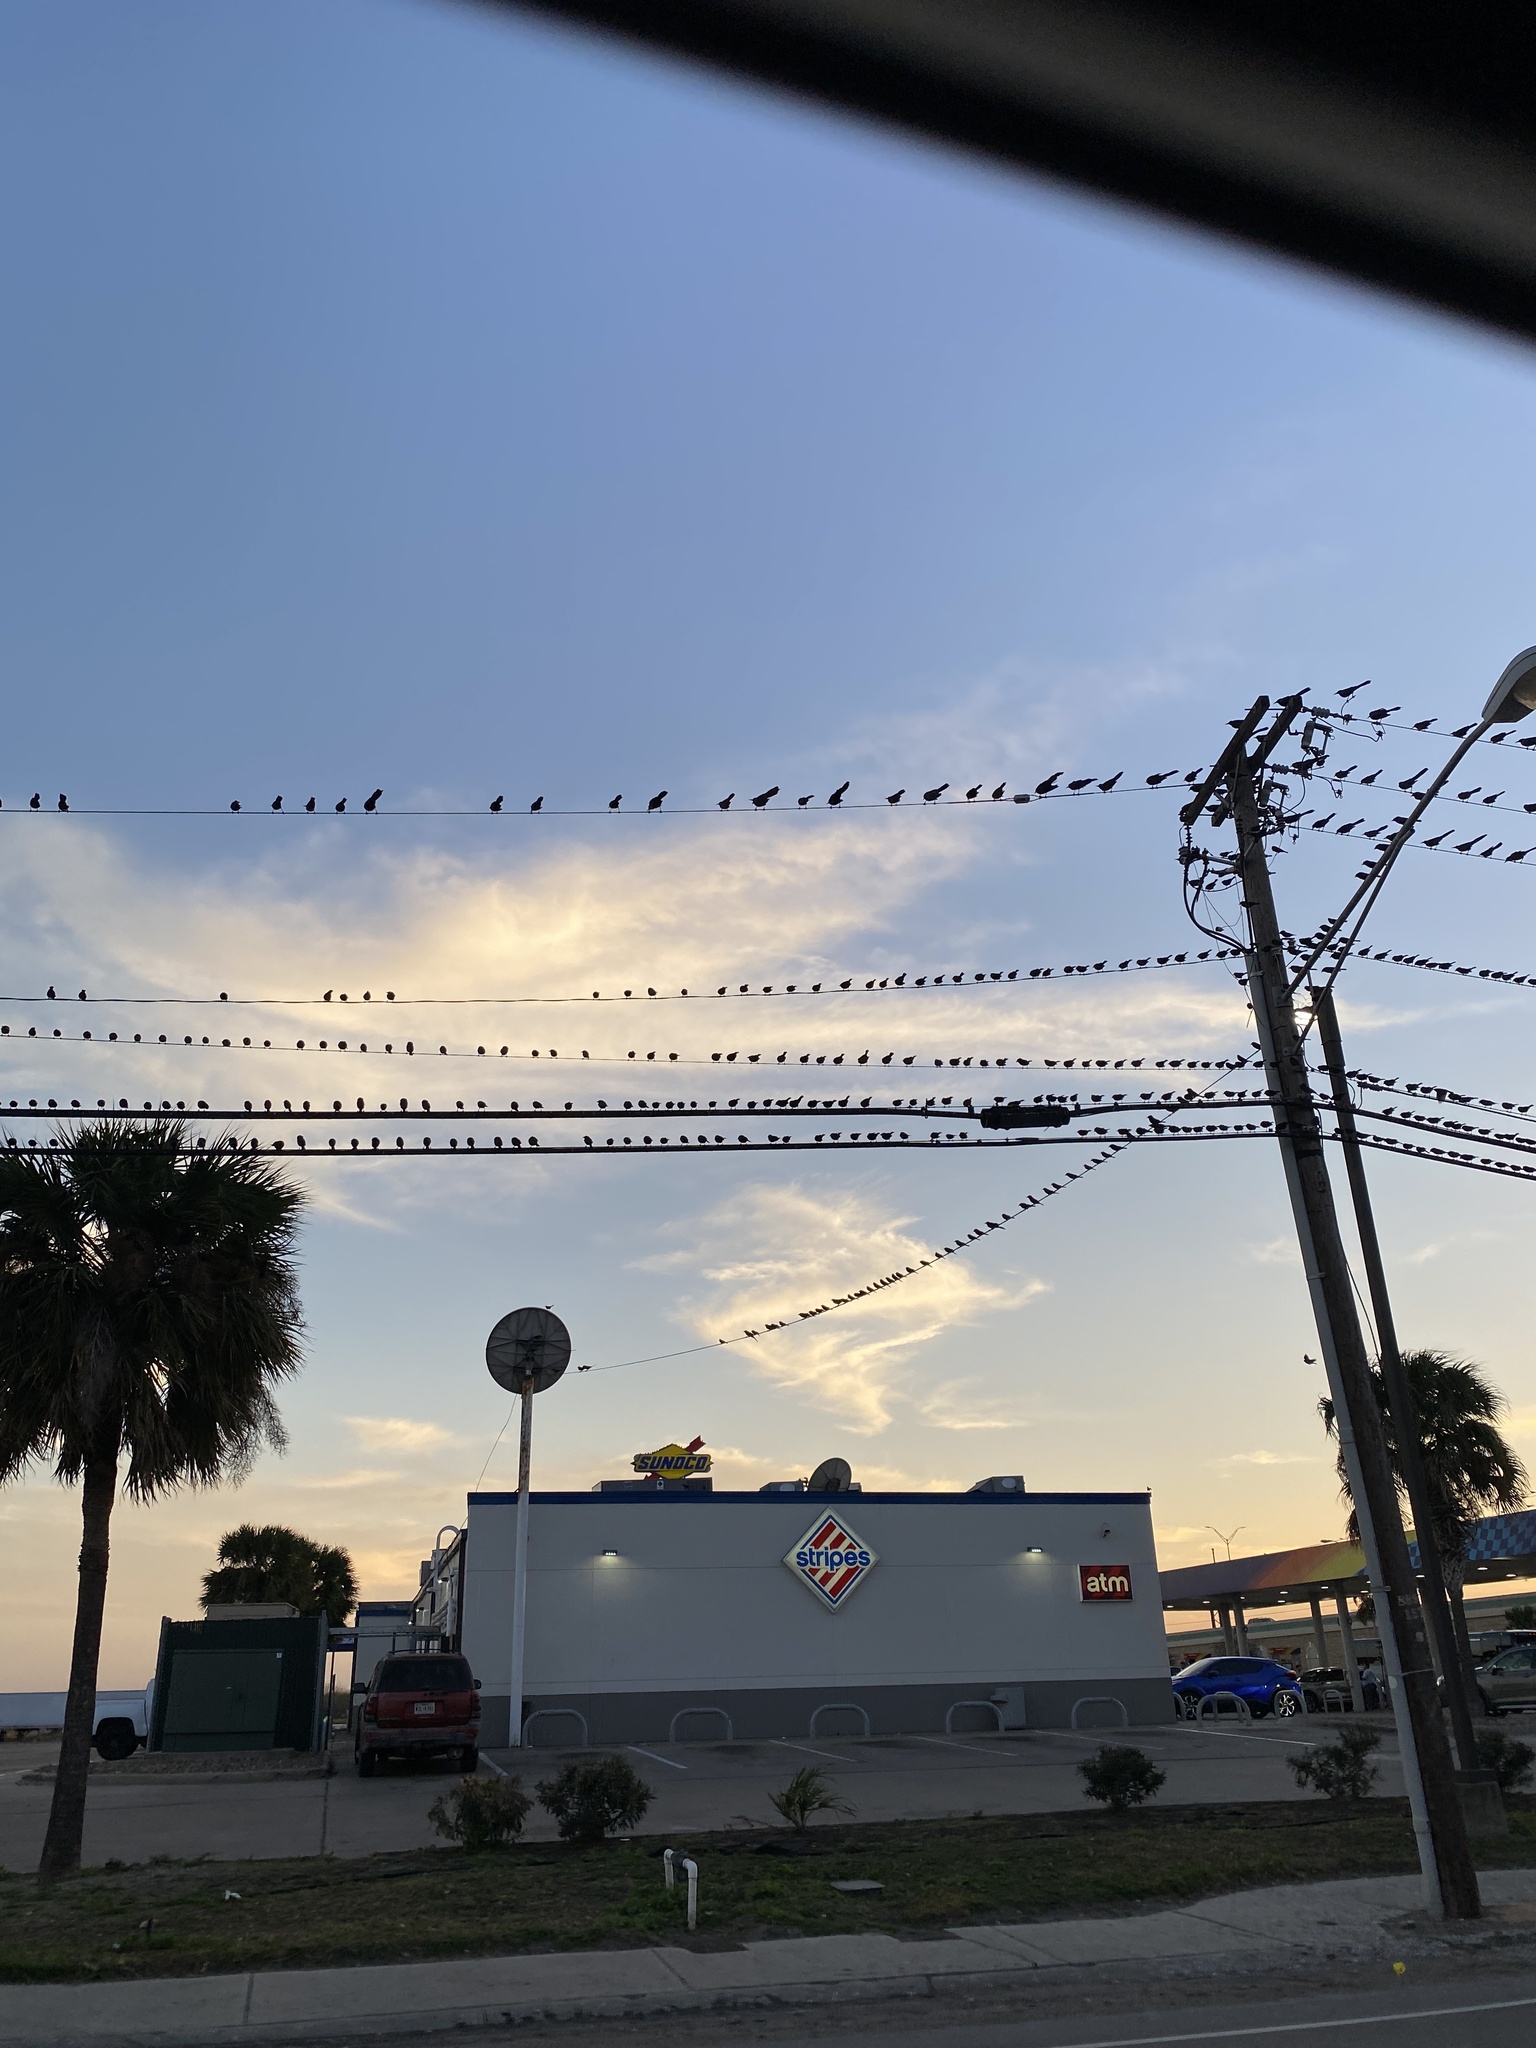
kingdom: Animalia
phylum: Chordata
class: Aves
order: Passeriformes
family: Icteridae
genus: Quiscalus
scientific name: Quiscalus mexicanus
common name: Great-tailed grackle
